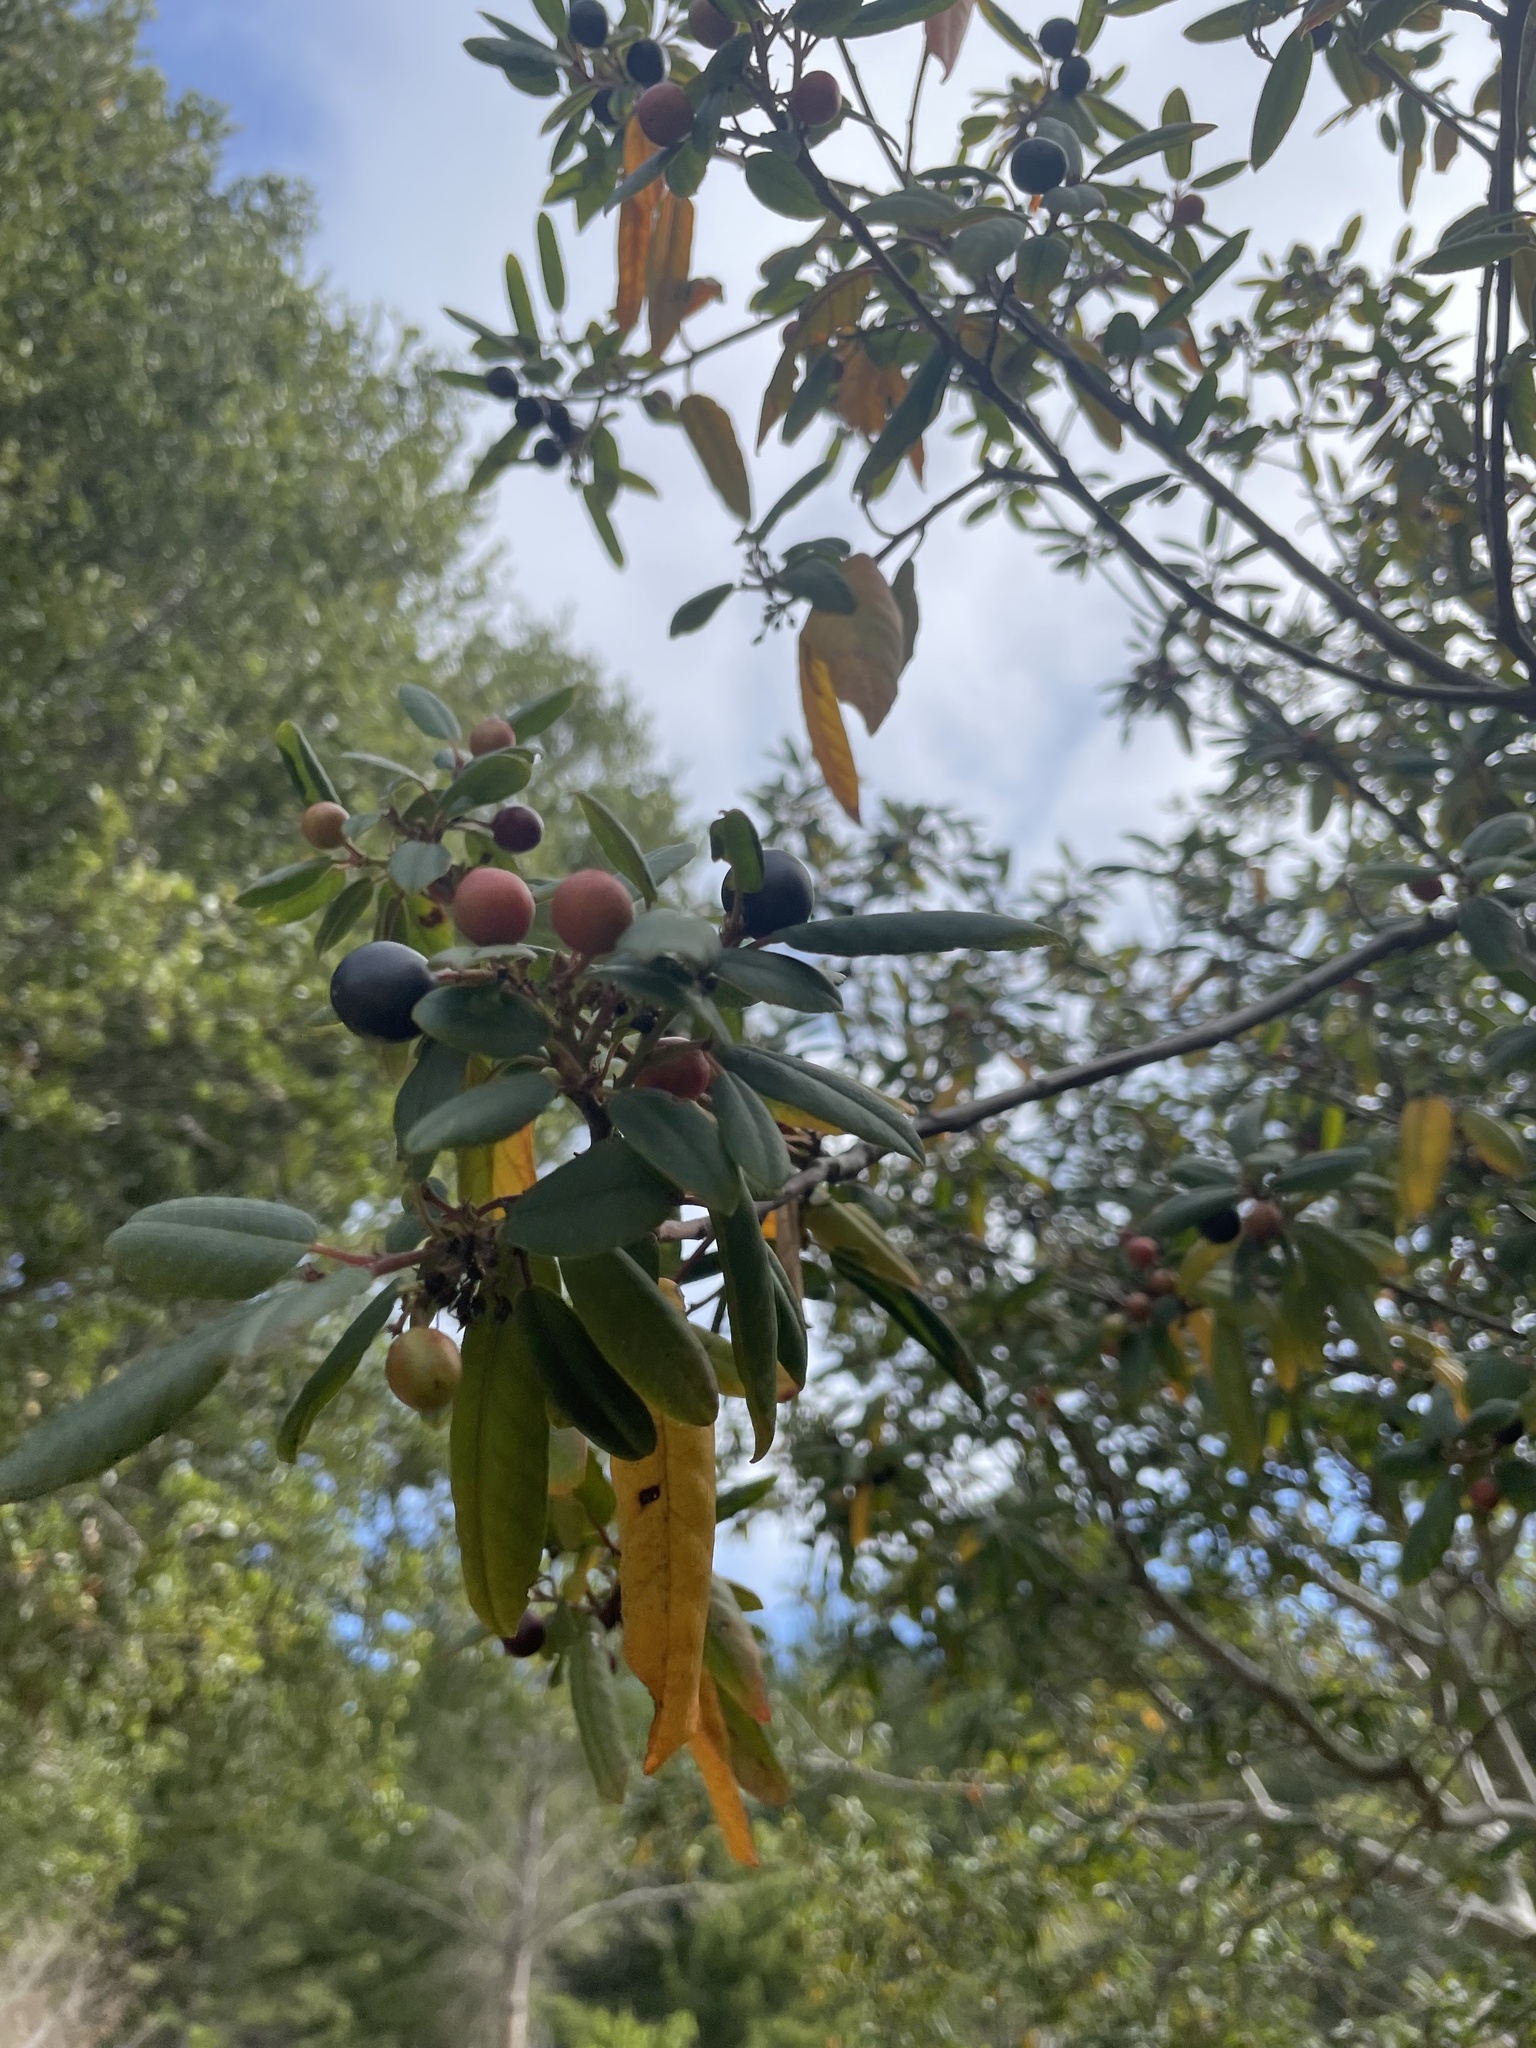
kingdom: Plantae
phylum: Tracheophyta
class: Magnoliopsida
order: Rosales
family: Rhamnaceae
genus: Frangula
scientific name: Frangula californica
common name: California buckthorn
